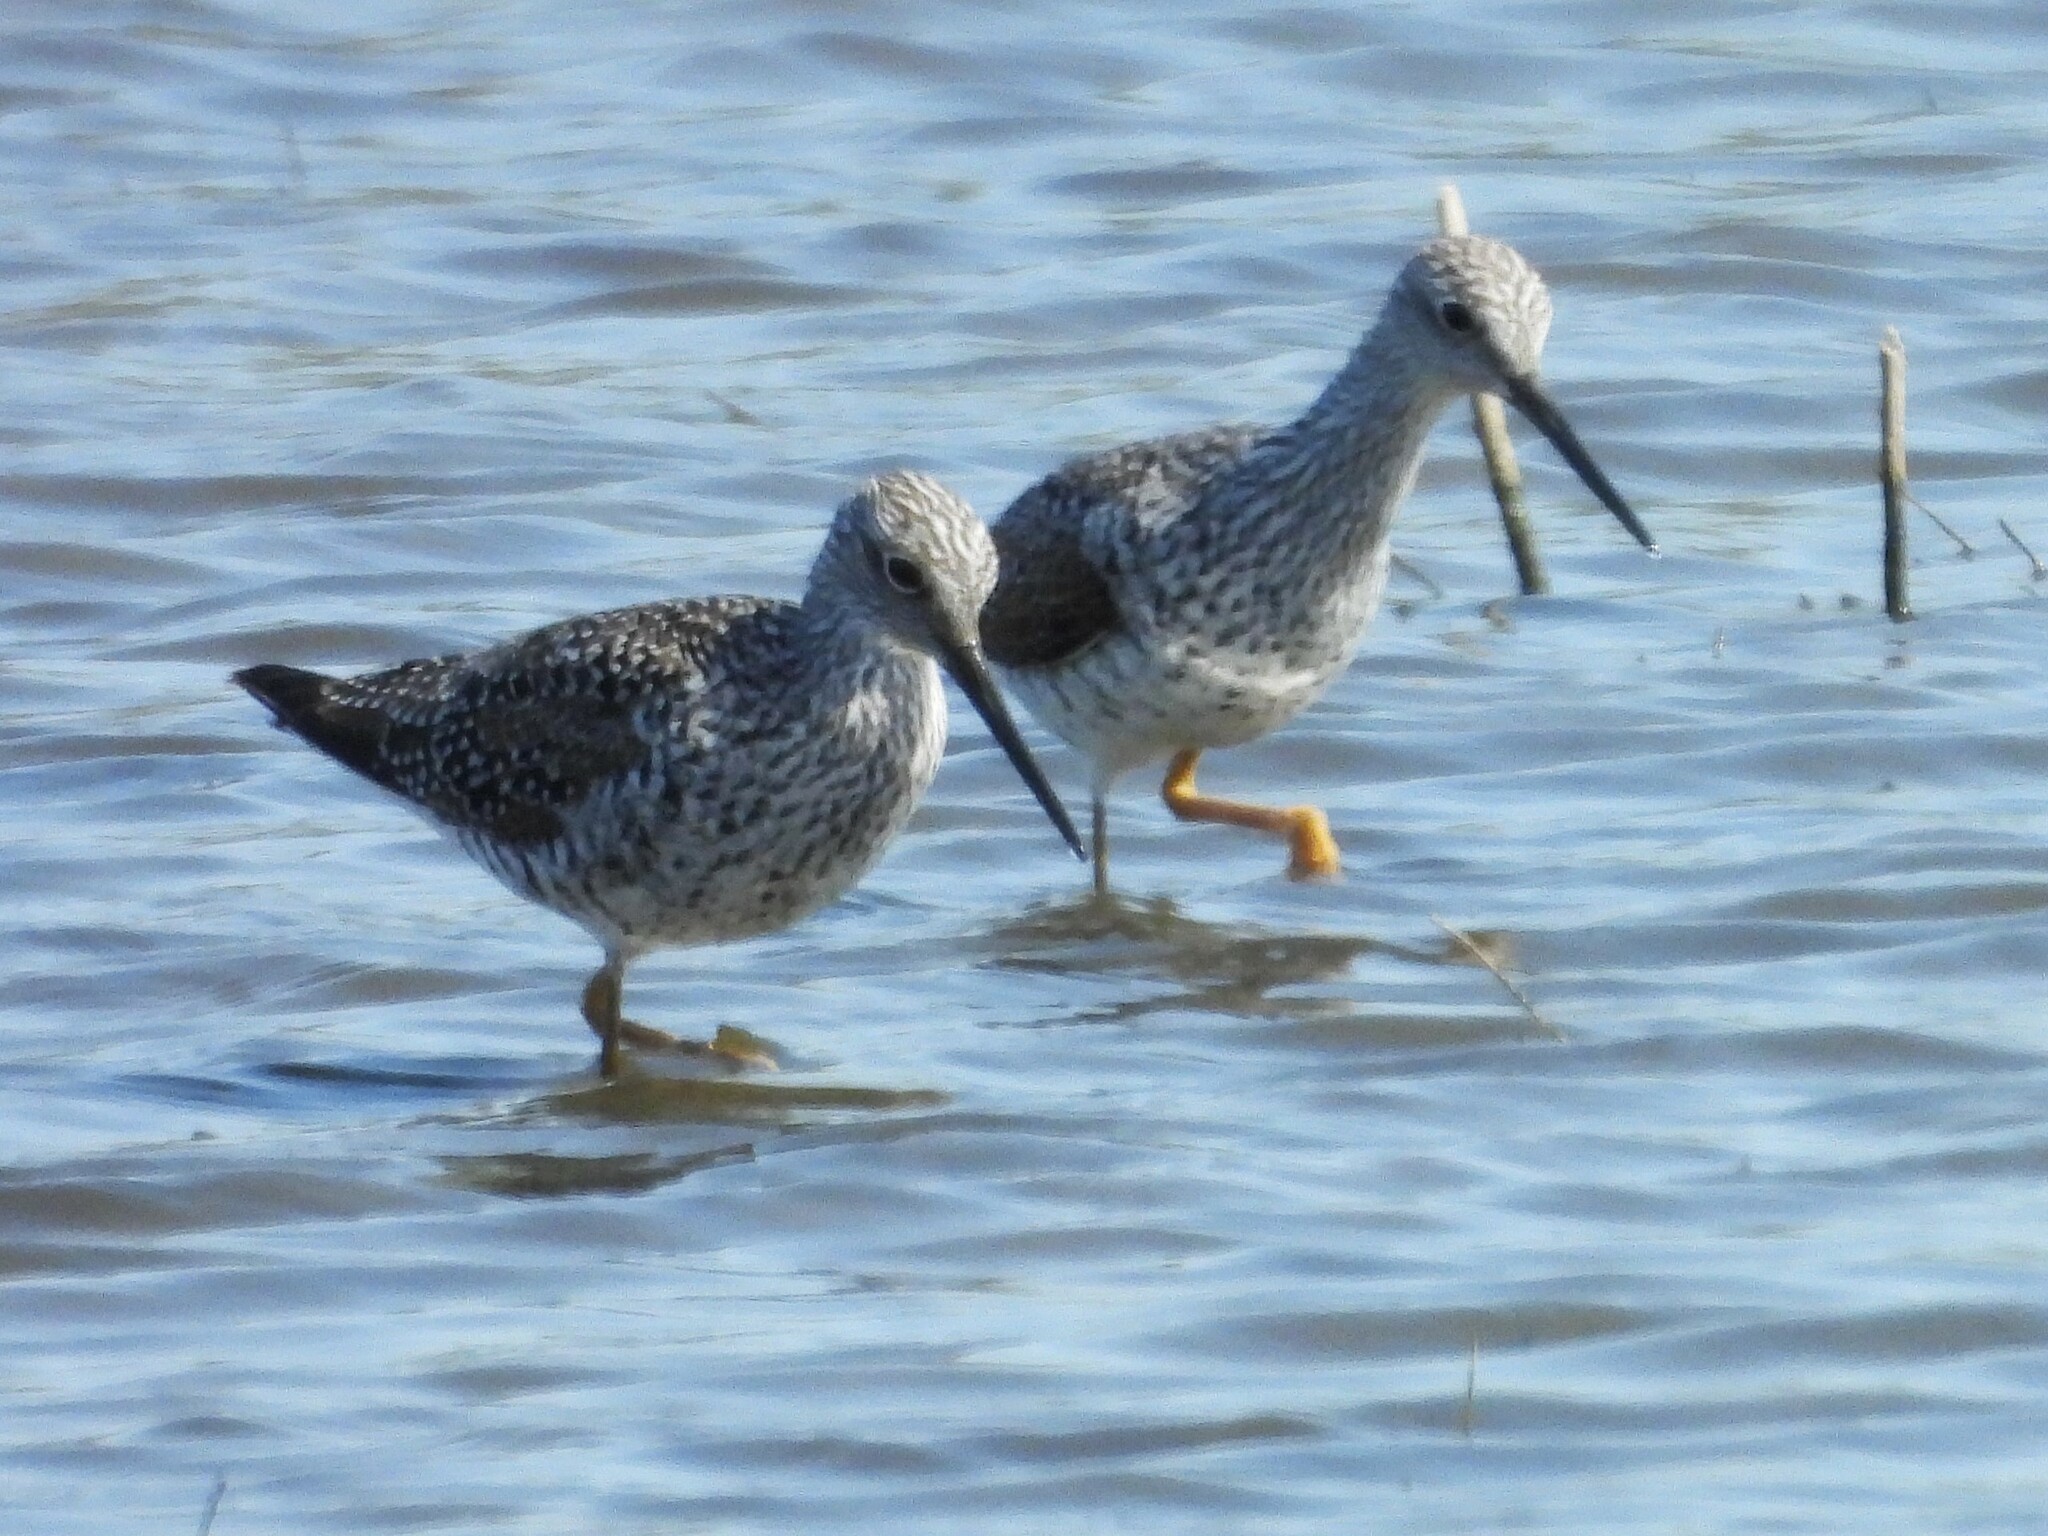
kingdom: Animalia
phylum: Chordata
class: Aves
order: Charadriiformes
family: Scolopacidae
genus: Tringa
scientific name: Tringa melanoleuca
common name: Greater yellowlegs
